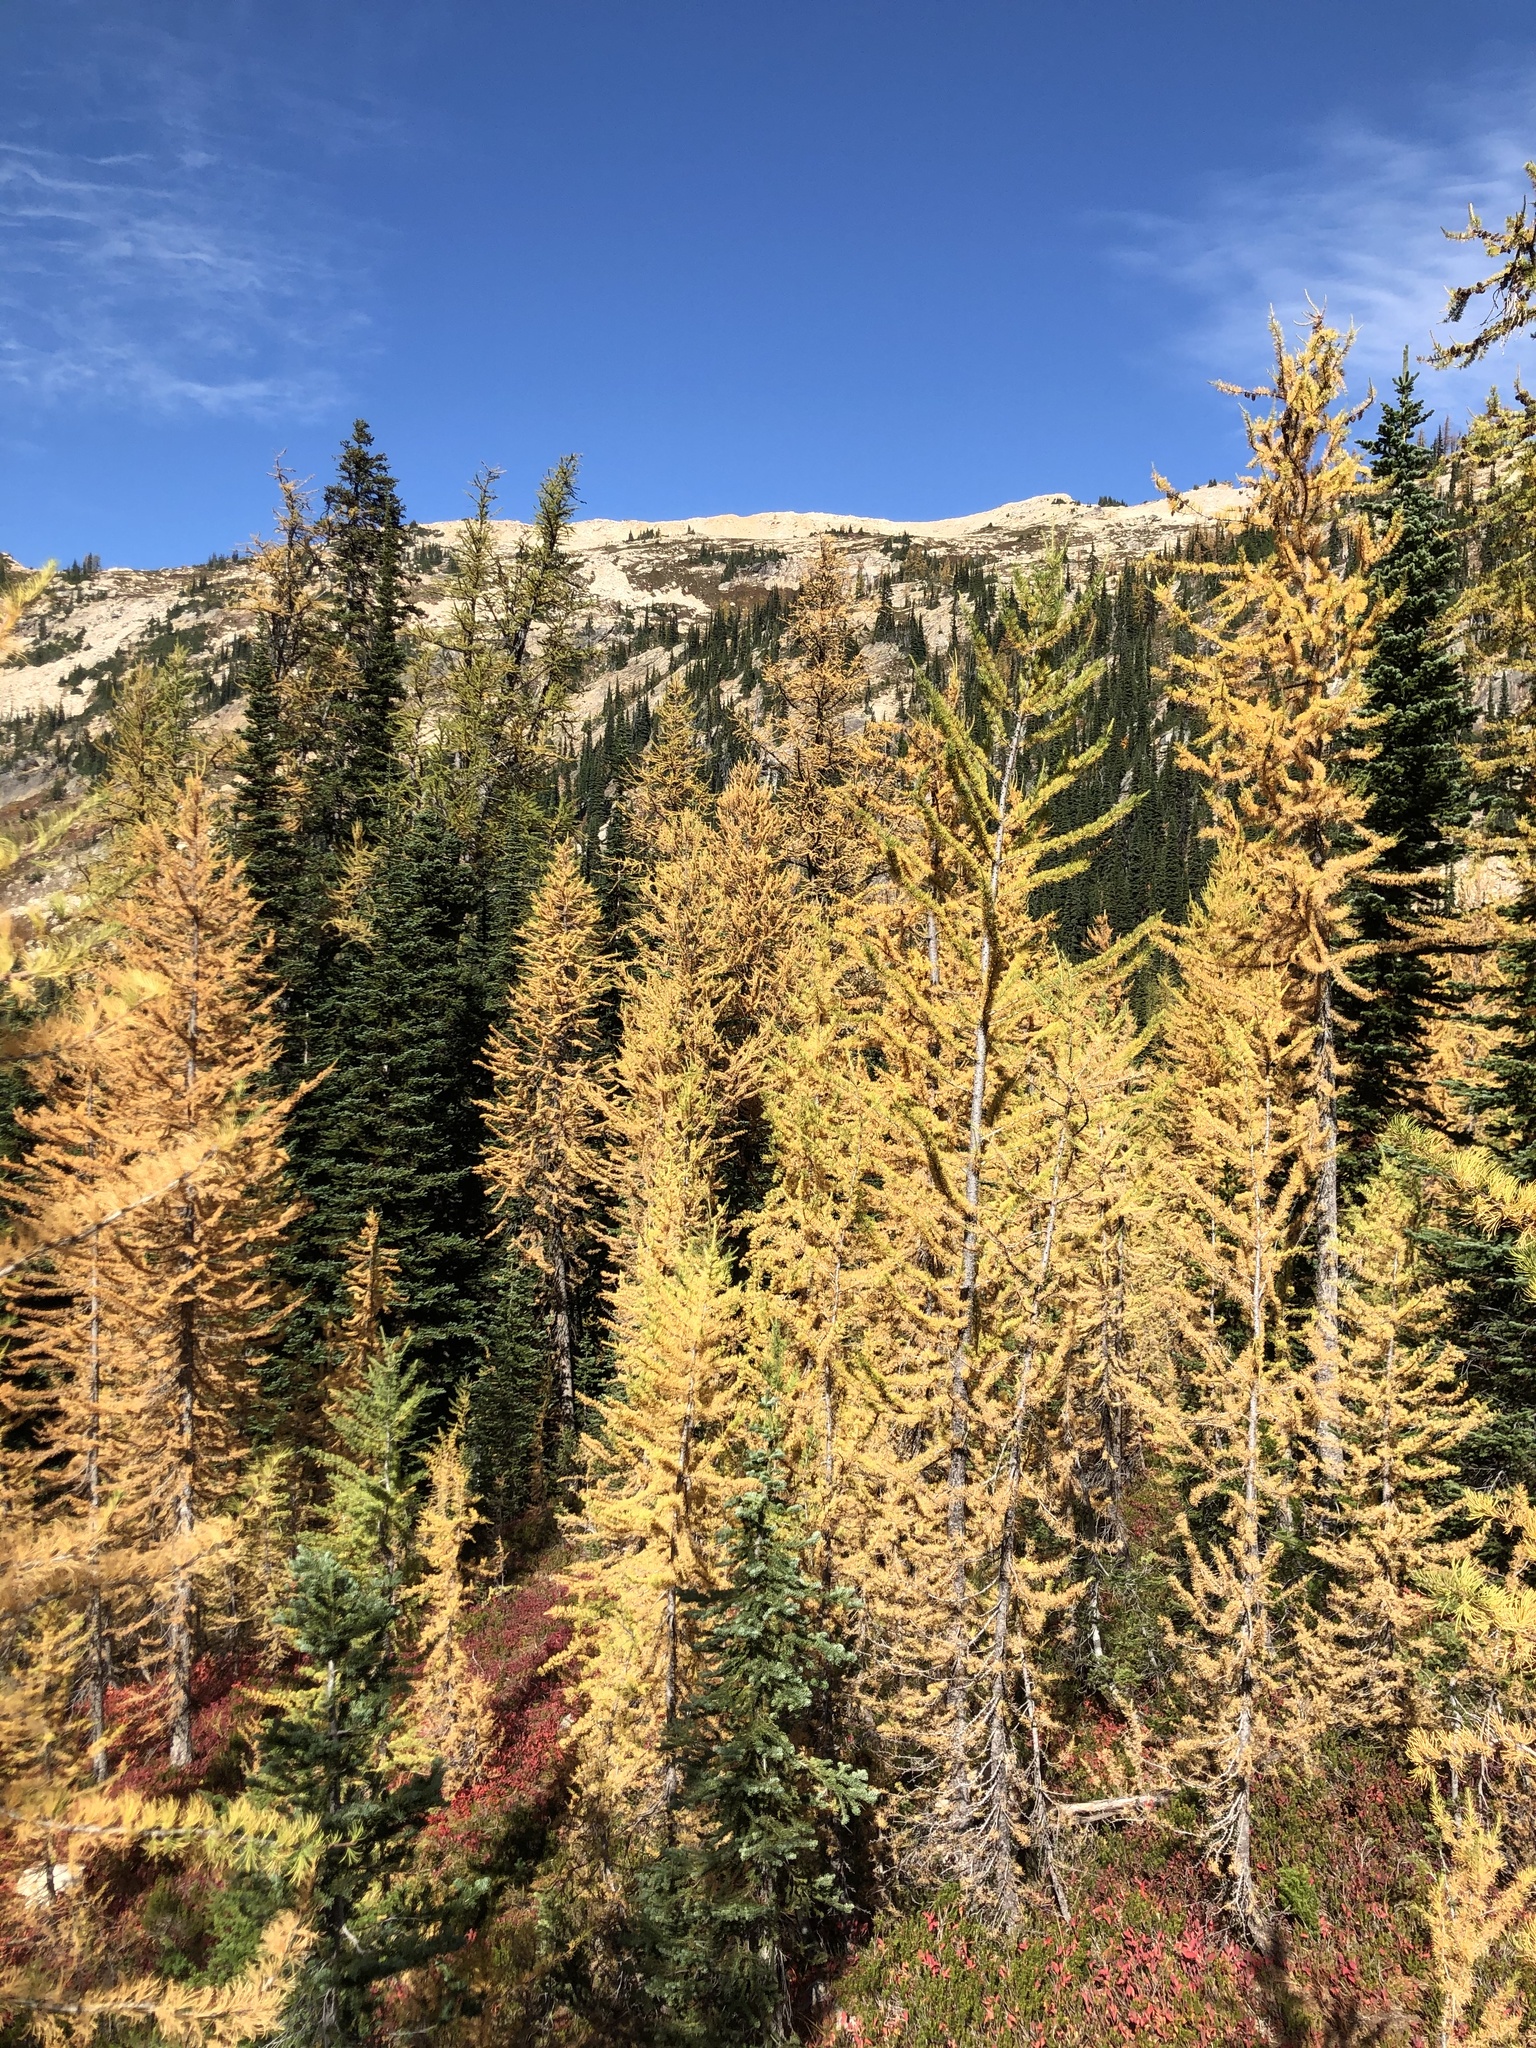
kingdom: Plantae
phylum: Tracheophyta
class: Pinopsida
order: Pinales
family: Pinaceae
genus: Larix
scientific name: Larix lyallii
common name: Alpine larch
